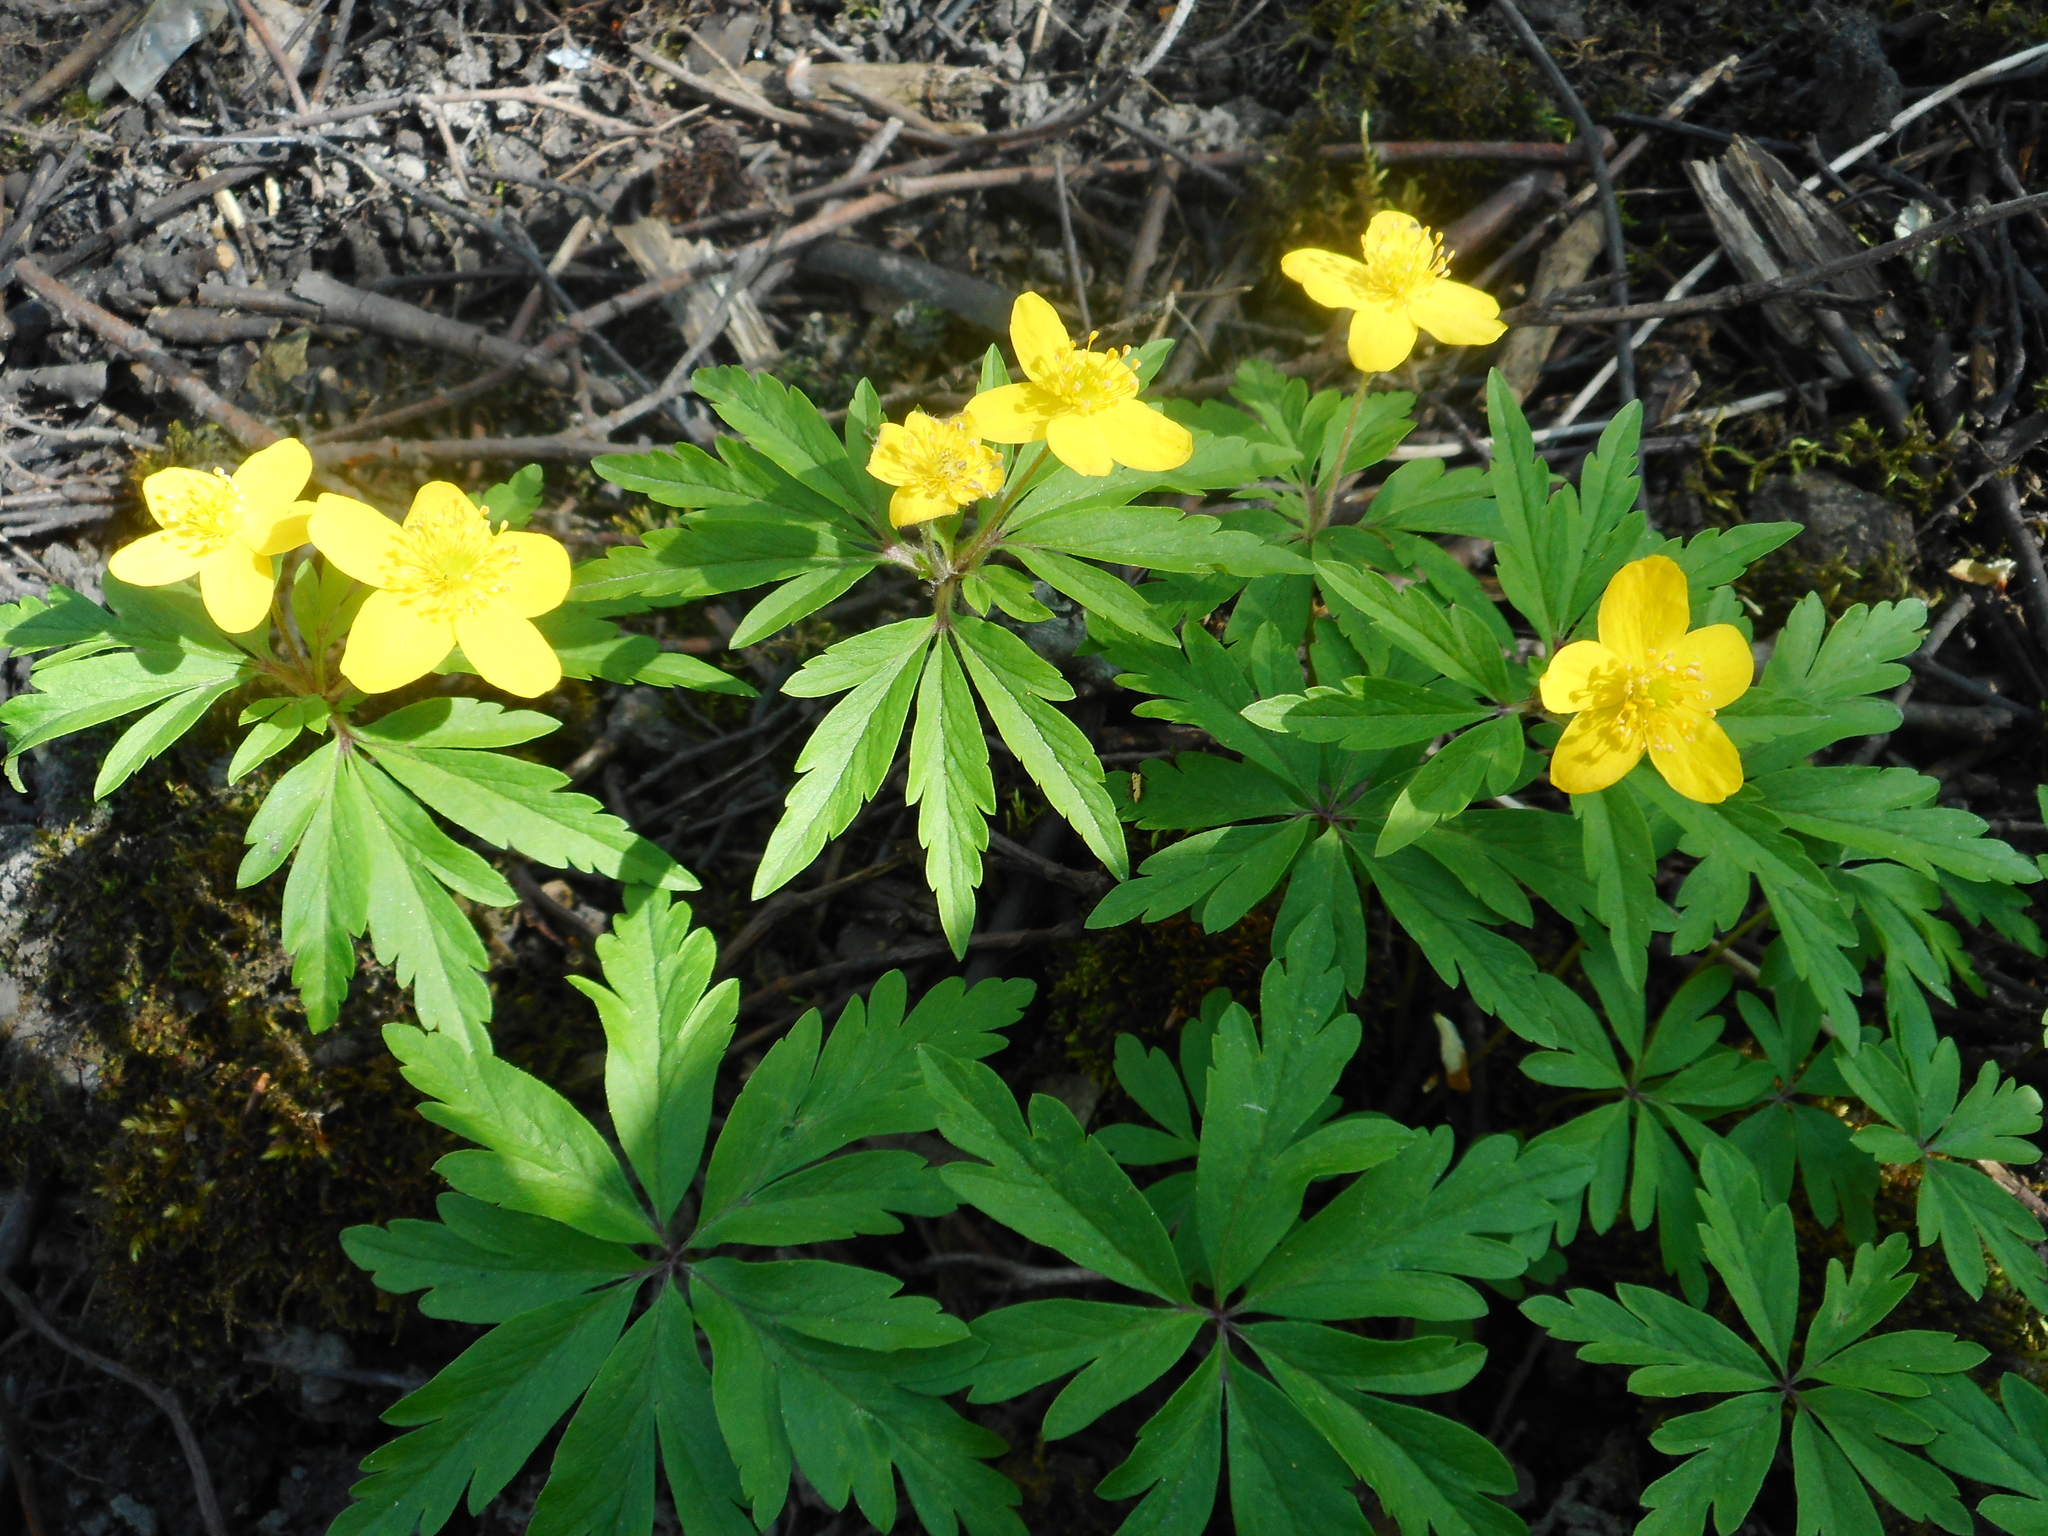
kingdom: Plantae
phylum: Tracheophyta
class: Magnoliopsida
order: Ranunculales
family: Ranunculaceae
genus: Anemone
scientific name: Anemone ranunculoides
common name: Yellow anemone
